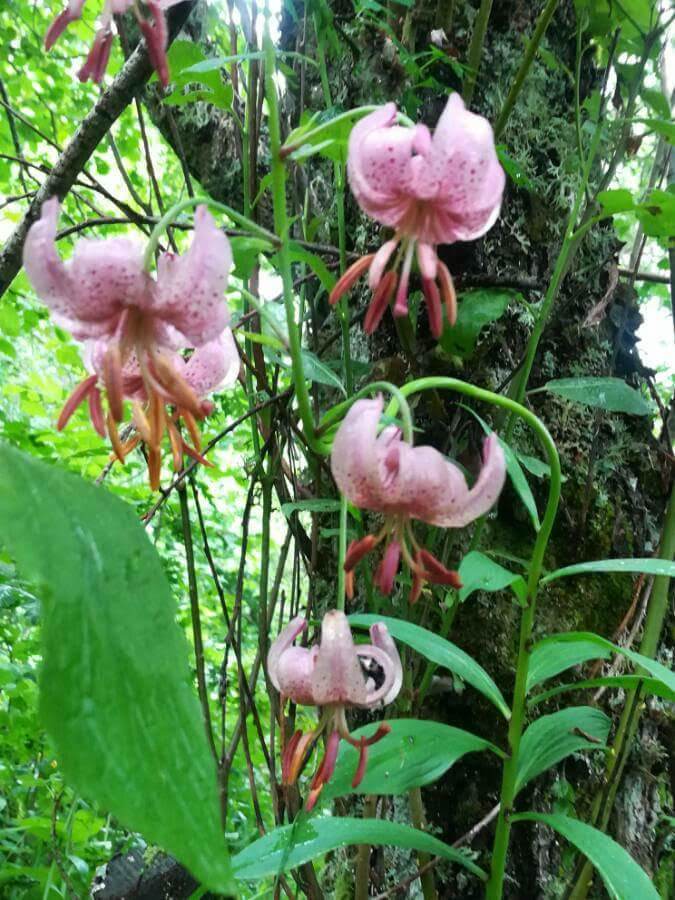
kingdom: Plantae
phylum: Tracheophyta
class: Liliopsida
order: Liliales
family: Liliaceae
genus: Lilium
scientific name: Lilium martagon
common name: Martagon lily
